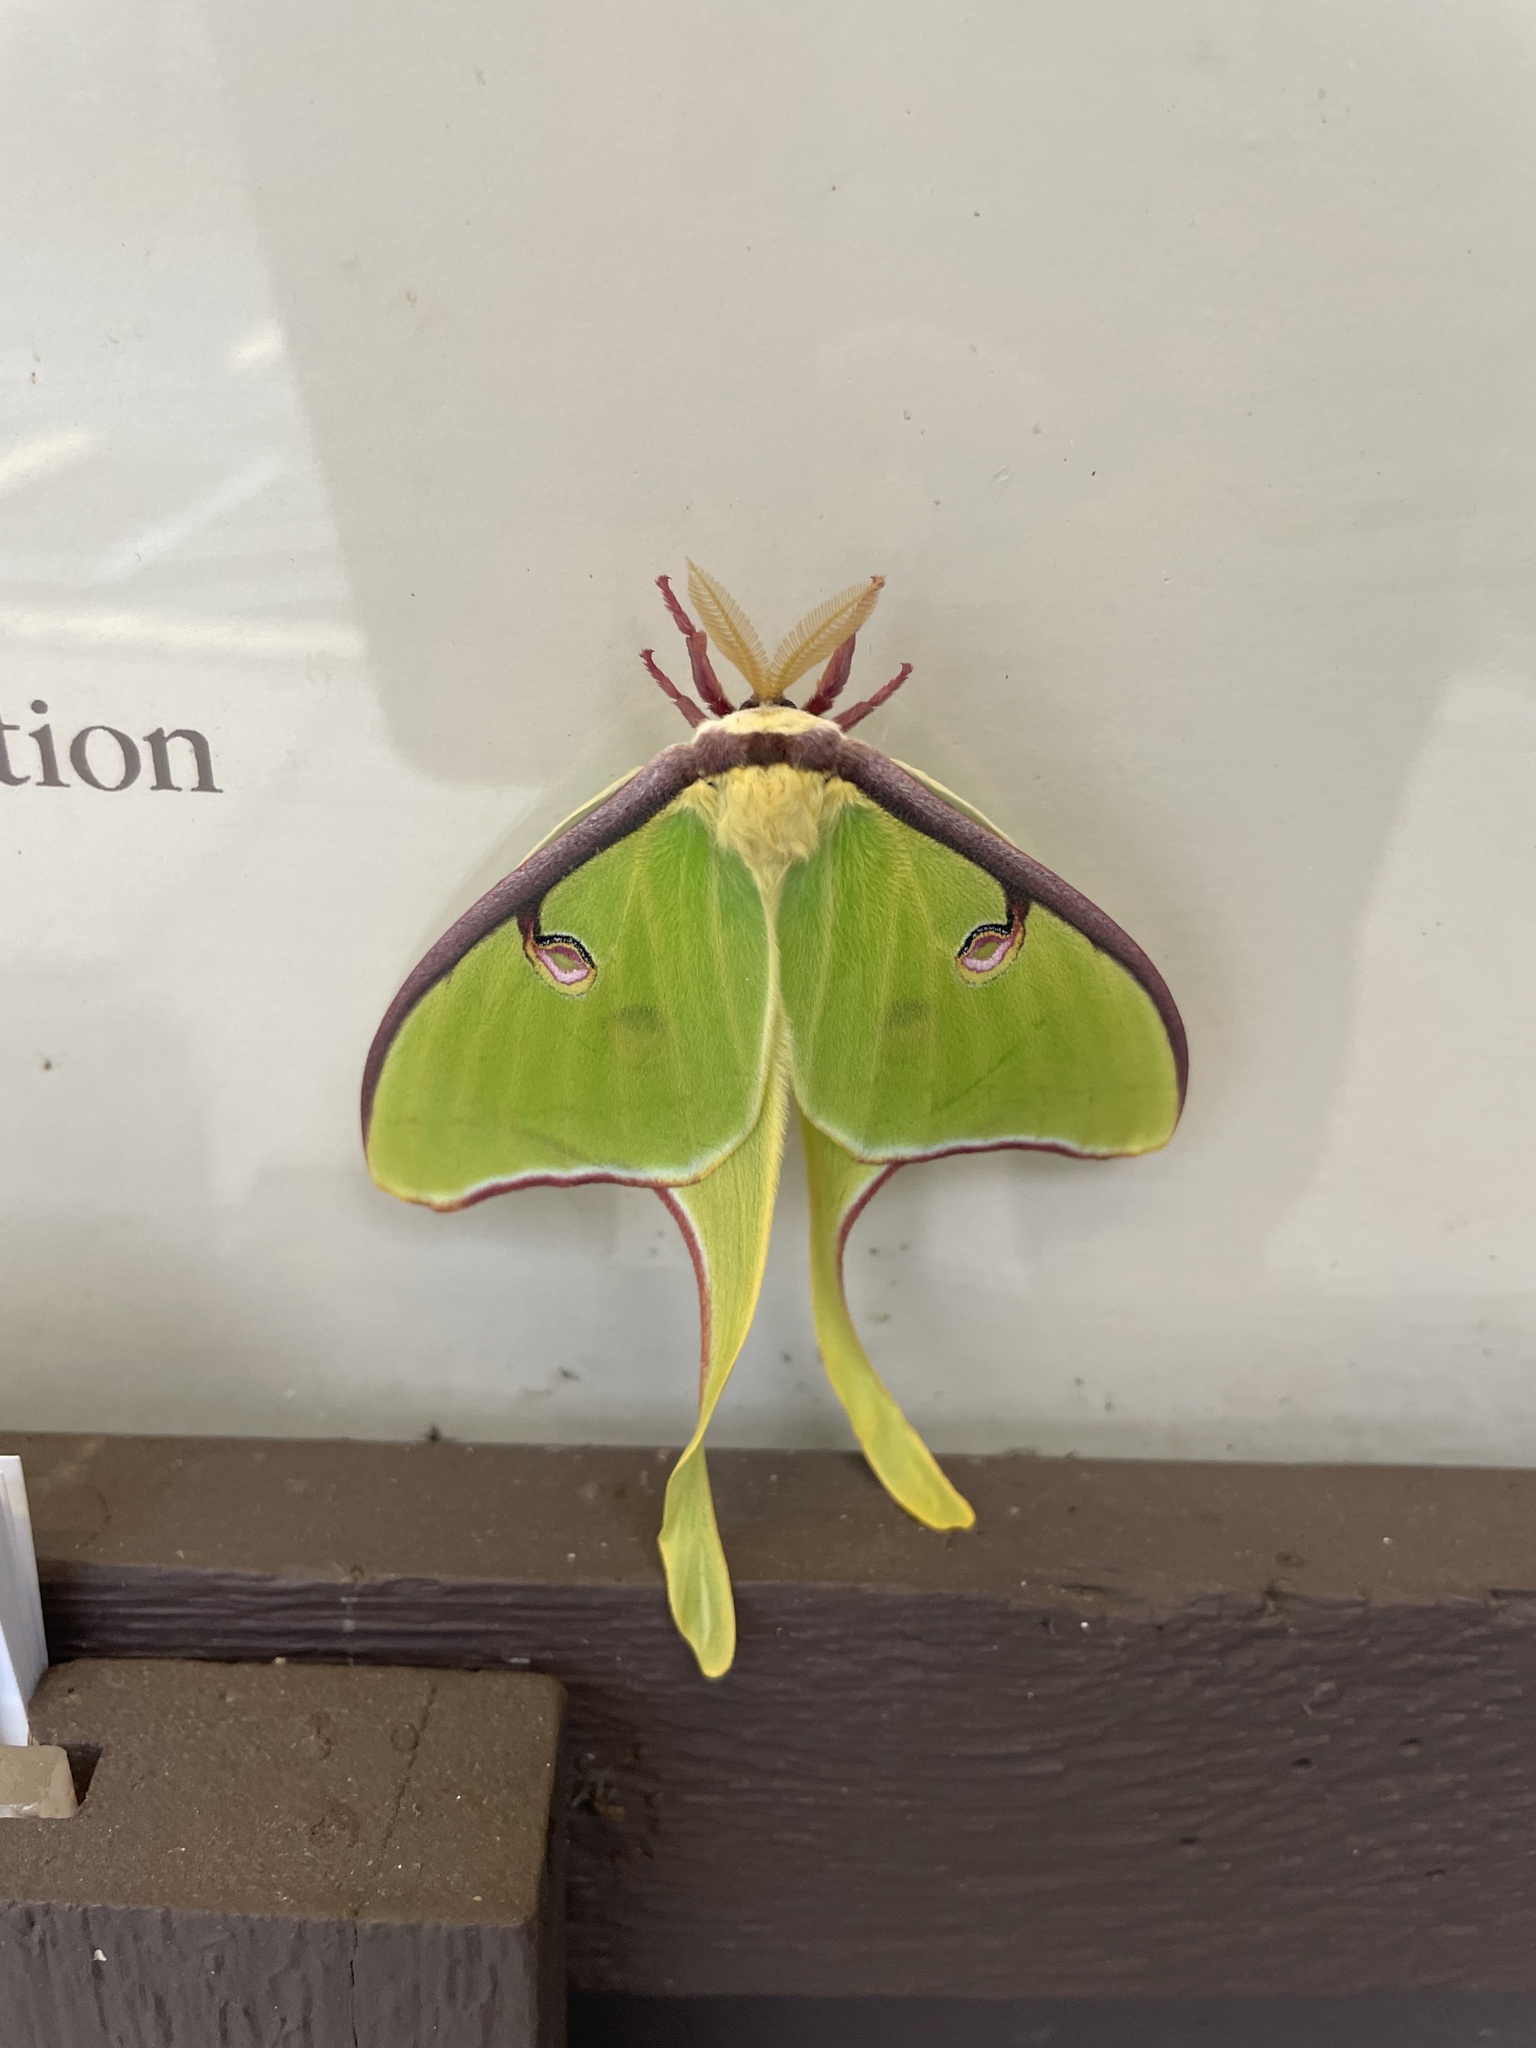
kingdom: Animalia
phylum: Arthropoda
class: Insecta
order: Lepidoptera
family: Saturniidae
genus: Actias
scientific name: Actias luna
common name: Luna moth
